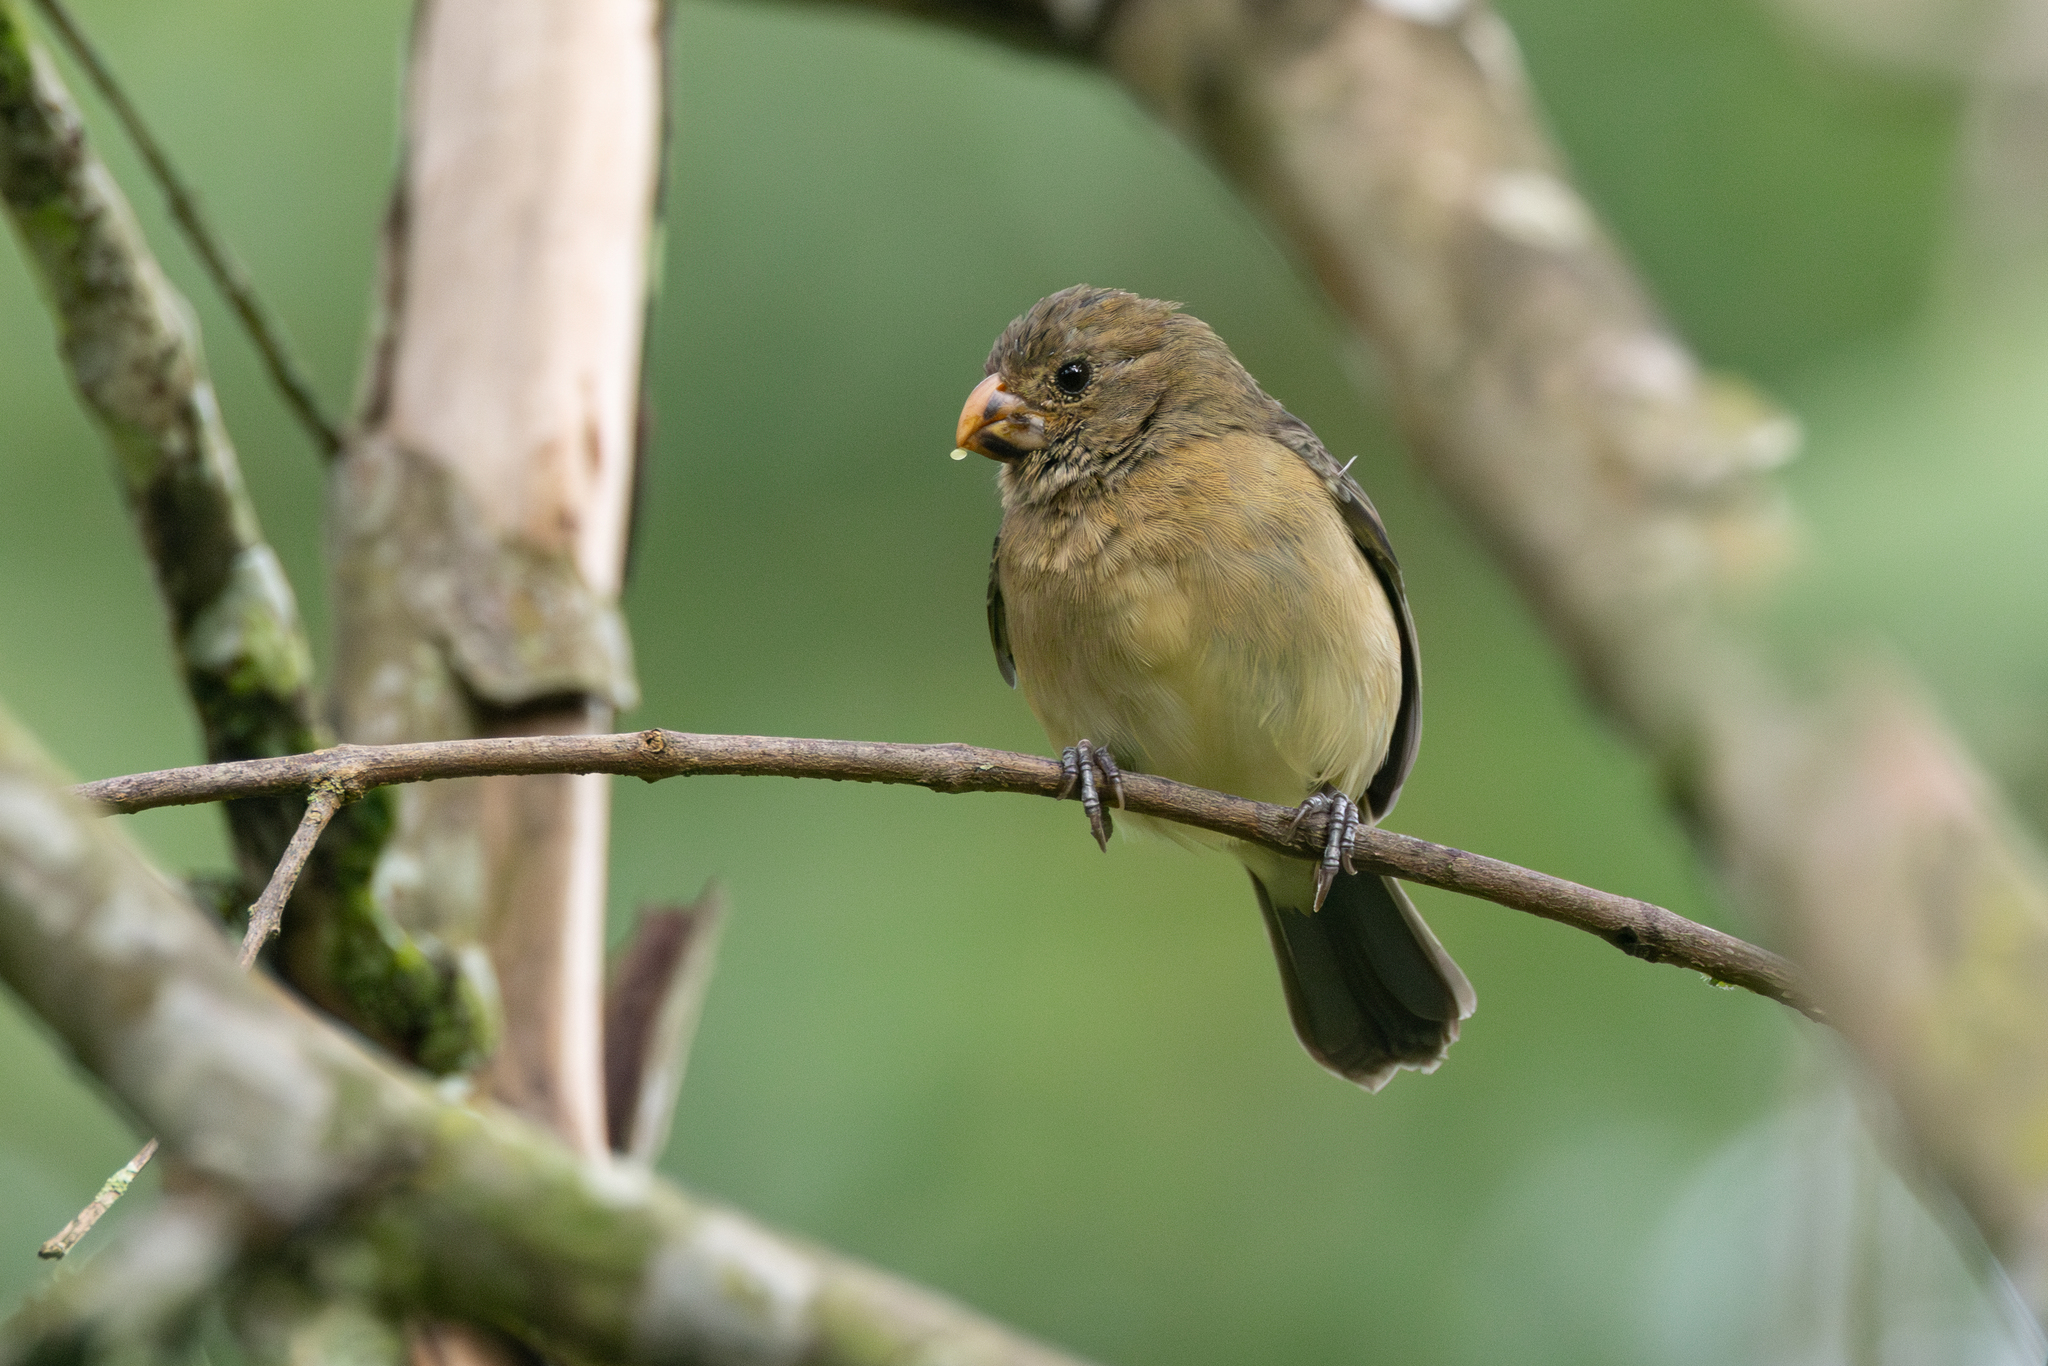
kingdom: Animalia
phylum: Chordata
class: Aves
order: Passeriformes
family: Thraupidae
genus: Sporophila
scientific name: Sporophila intermedia
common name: Grey seedeater
